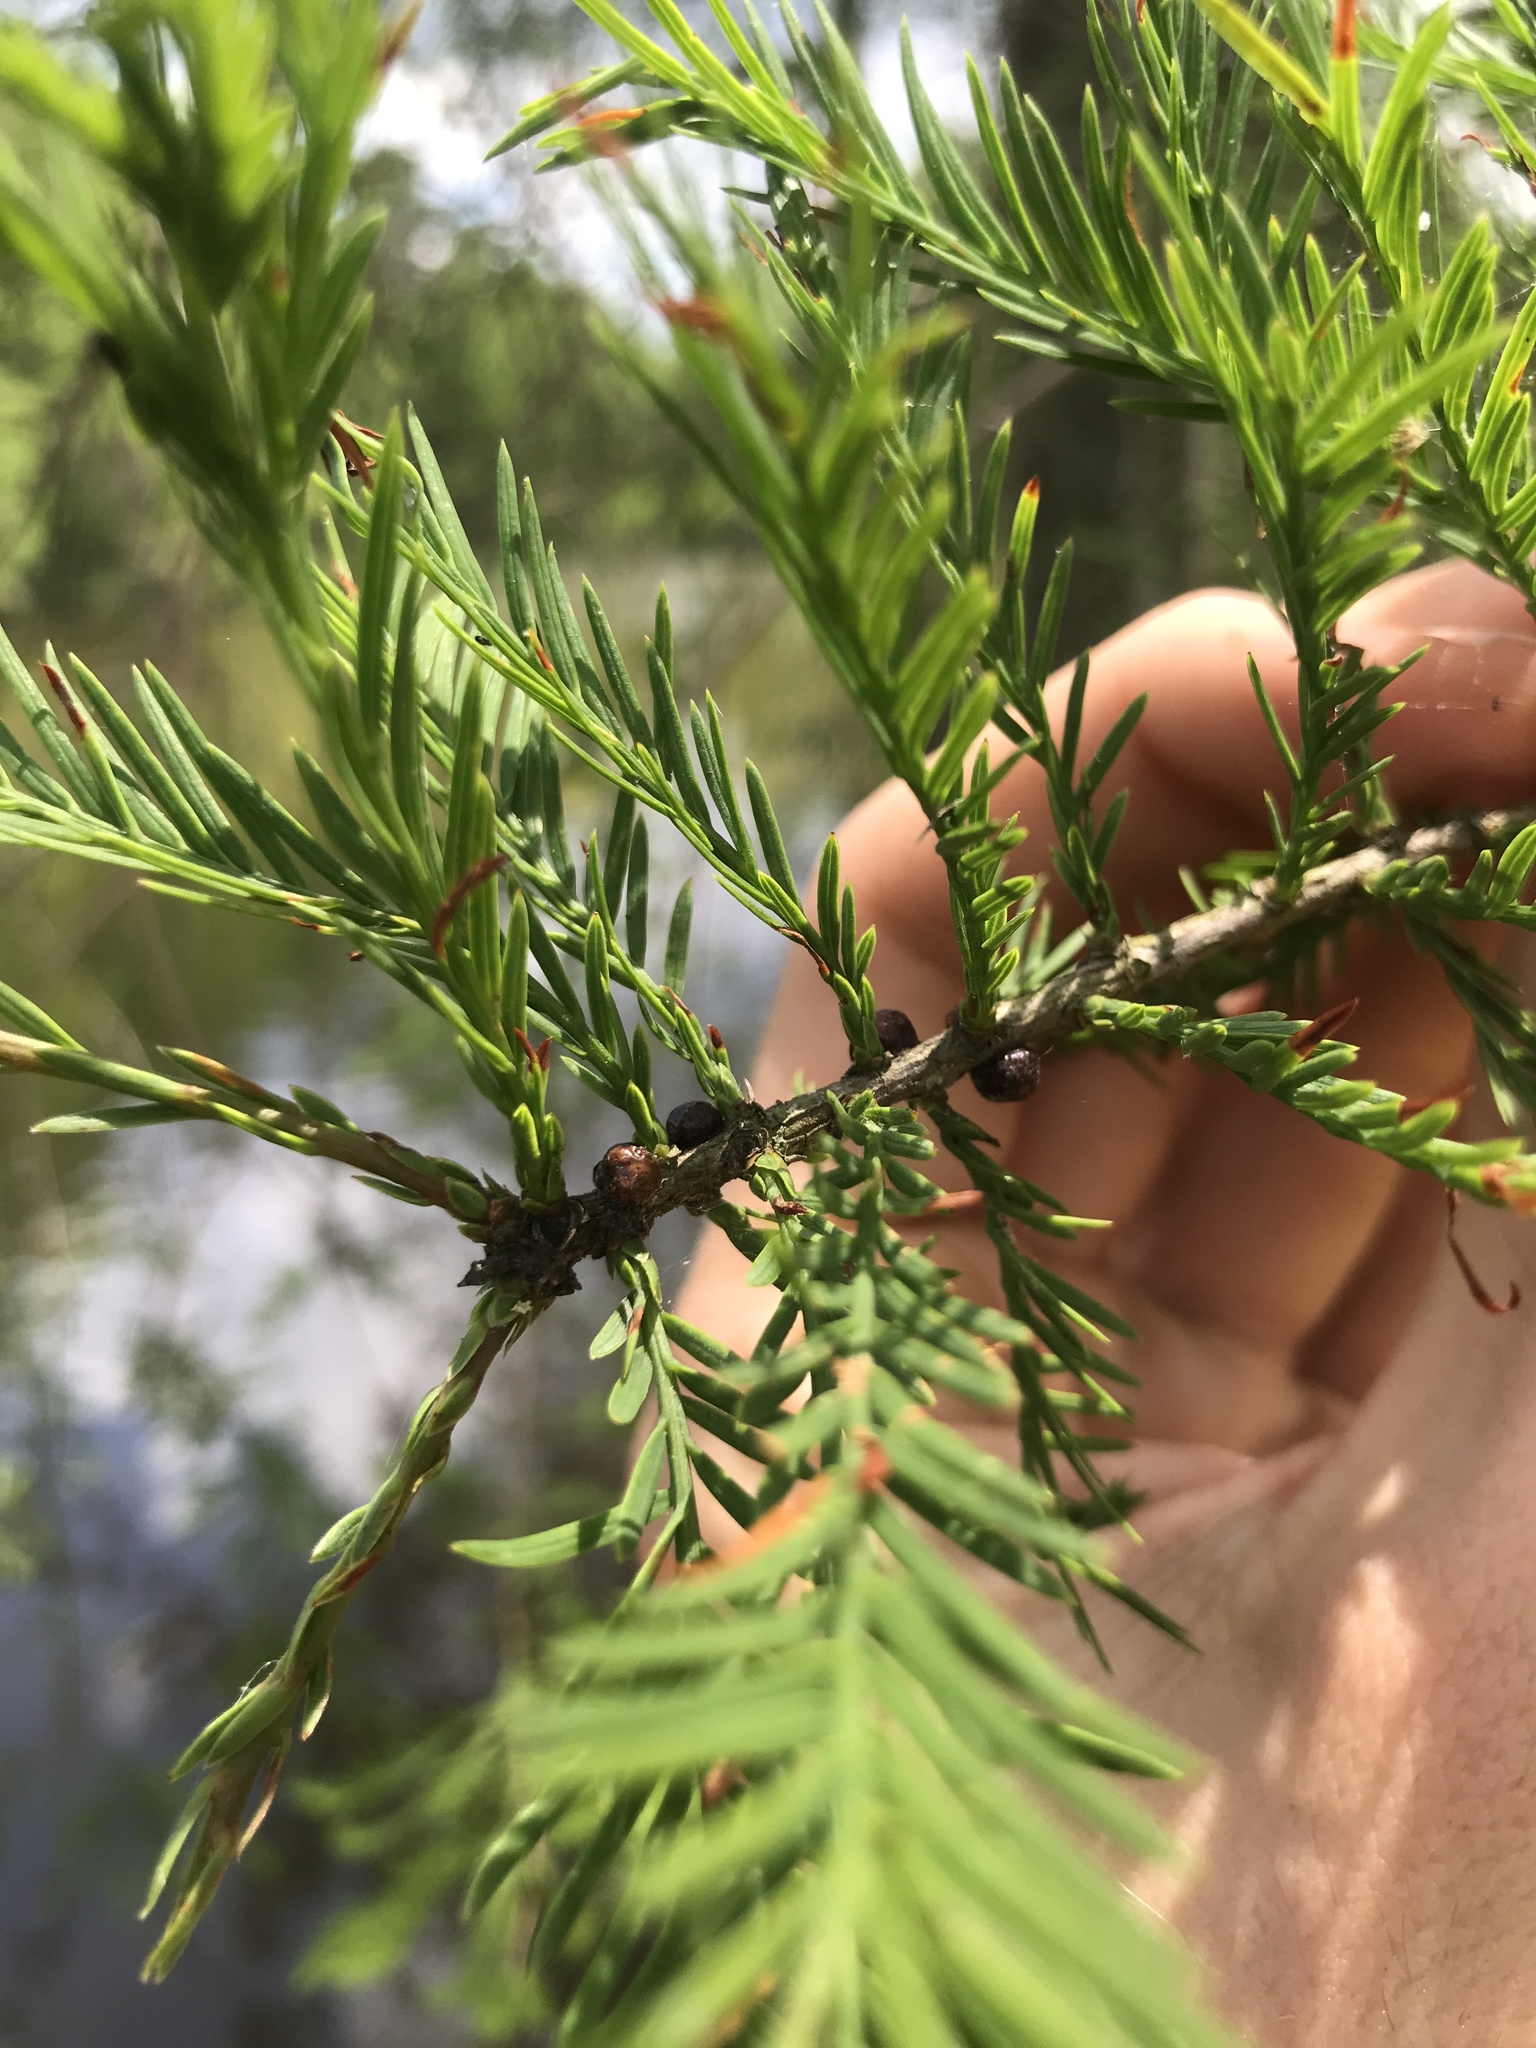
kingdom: Plantae
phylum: Tracheophyta
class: Pinopsida
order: Pinales
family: Cupressaceae
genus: Taxodium
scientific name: Taxodium distichum
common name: Bald cypress
